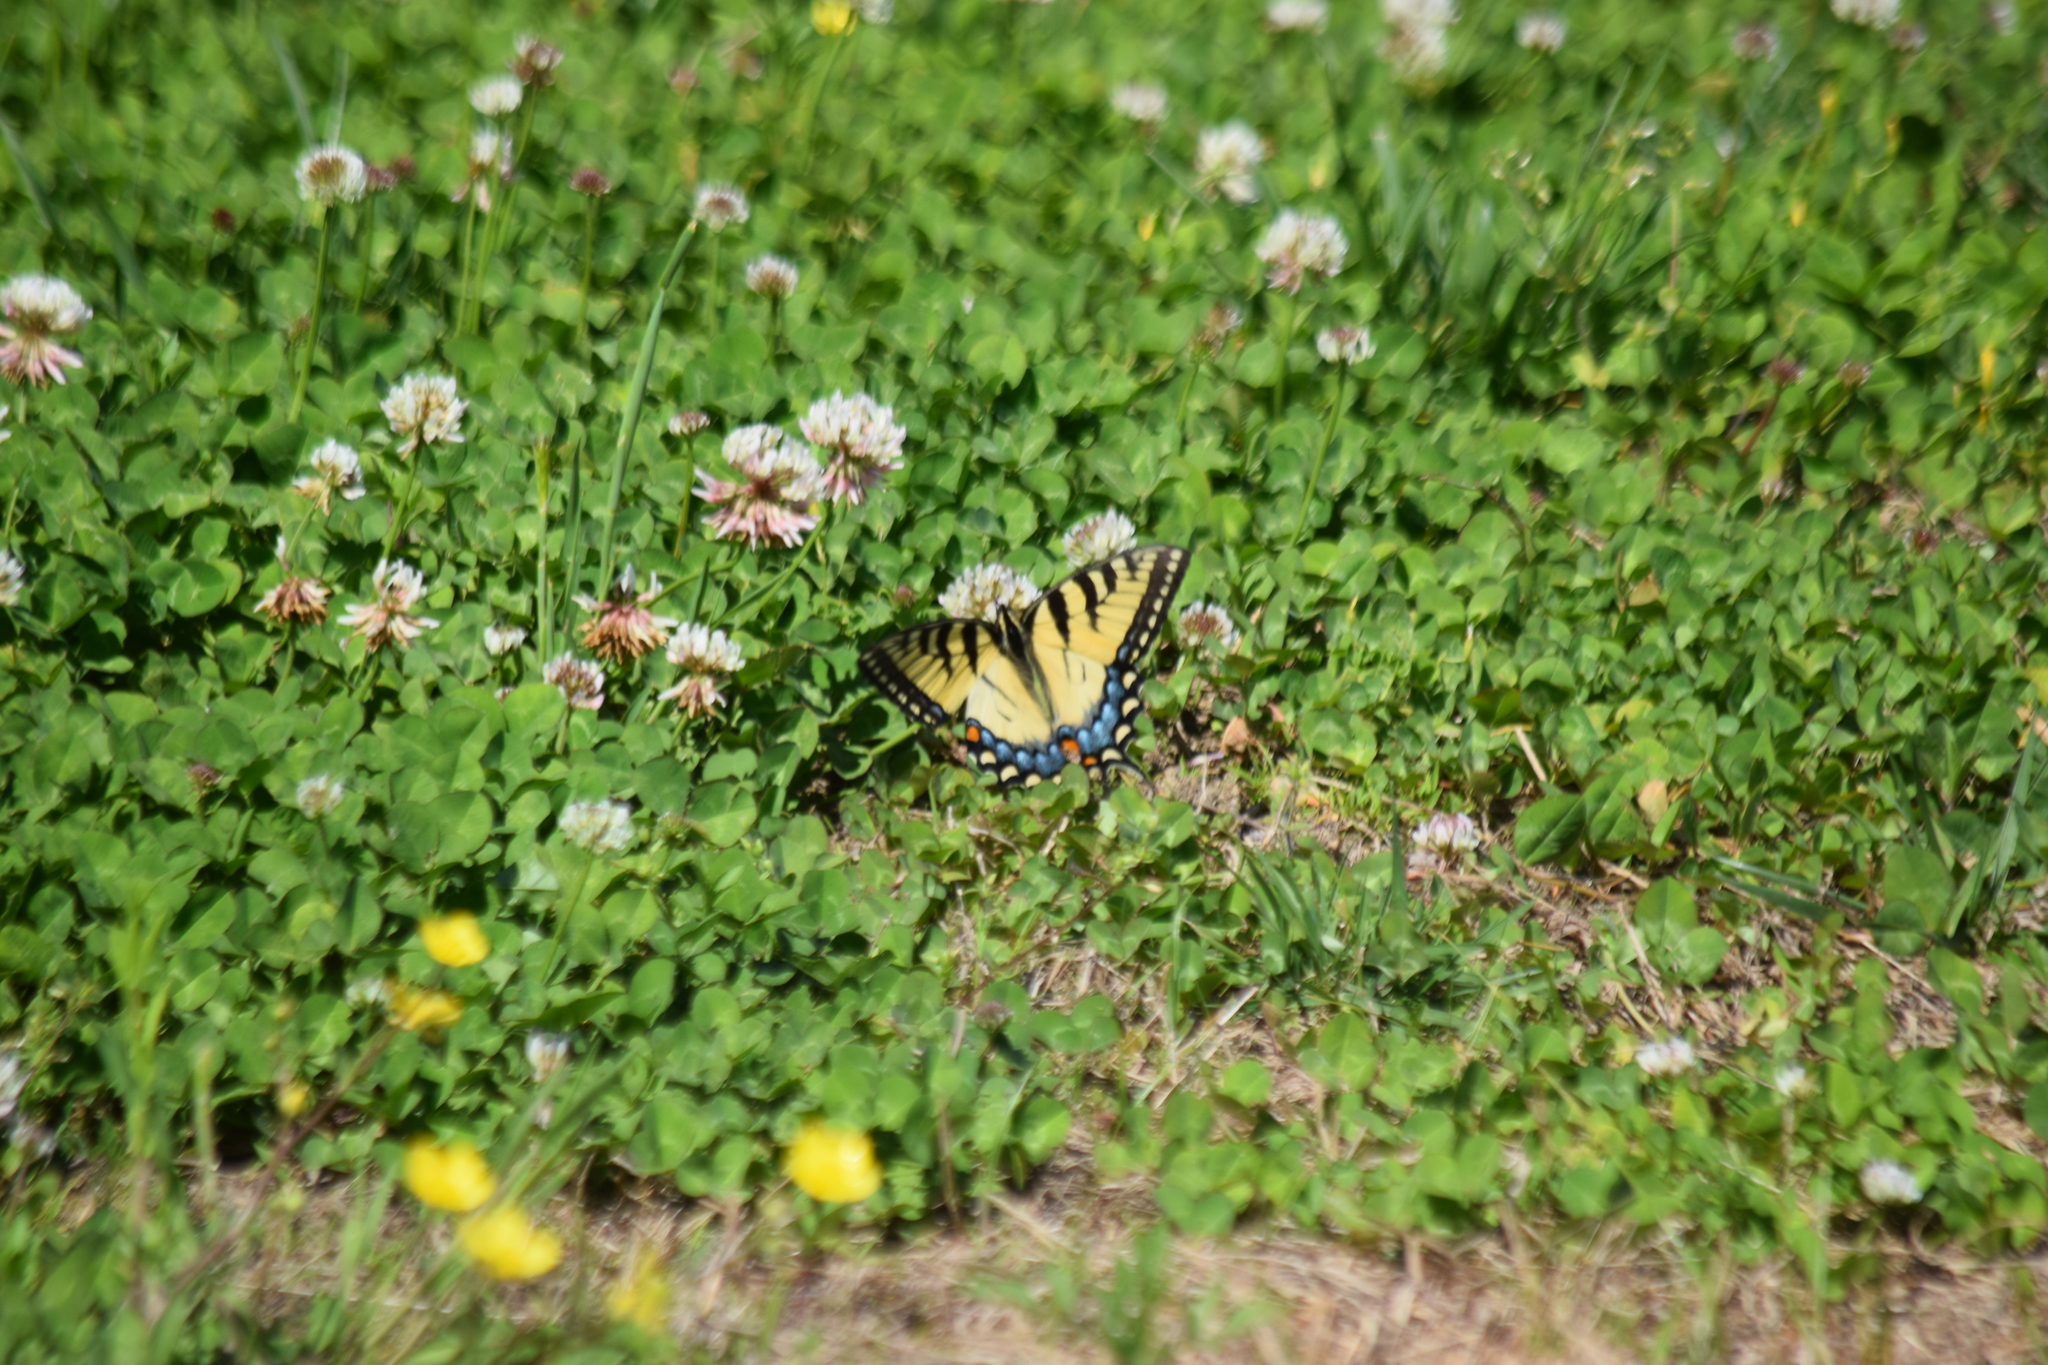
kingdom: Animalia
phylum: Arthropoda
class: Insecta
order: Lepidoptera
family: Papilionidae
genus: Papilio
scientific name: Papilio glaucus
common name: Tiger swallowtail
